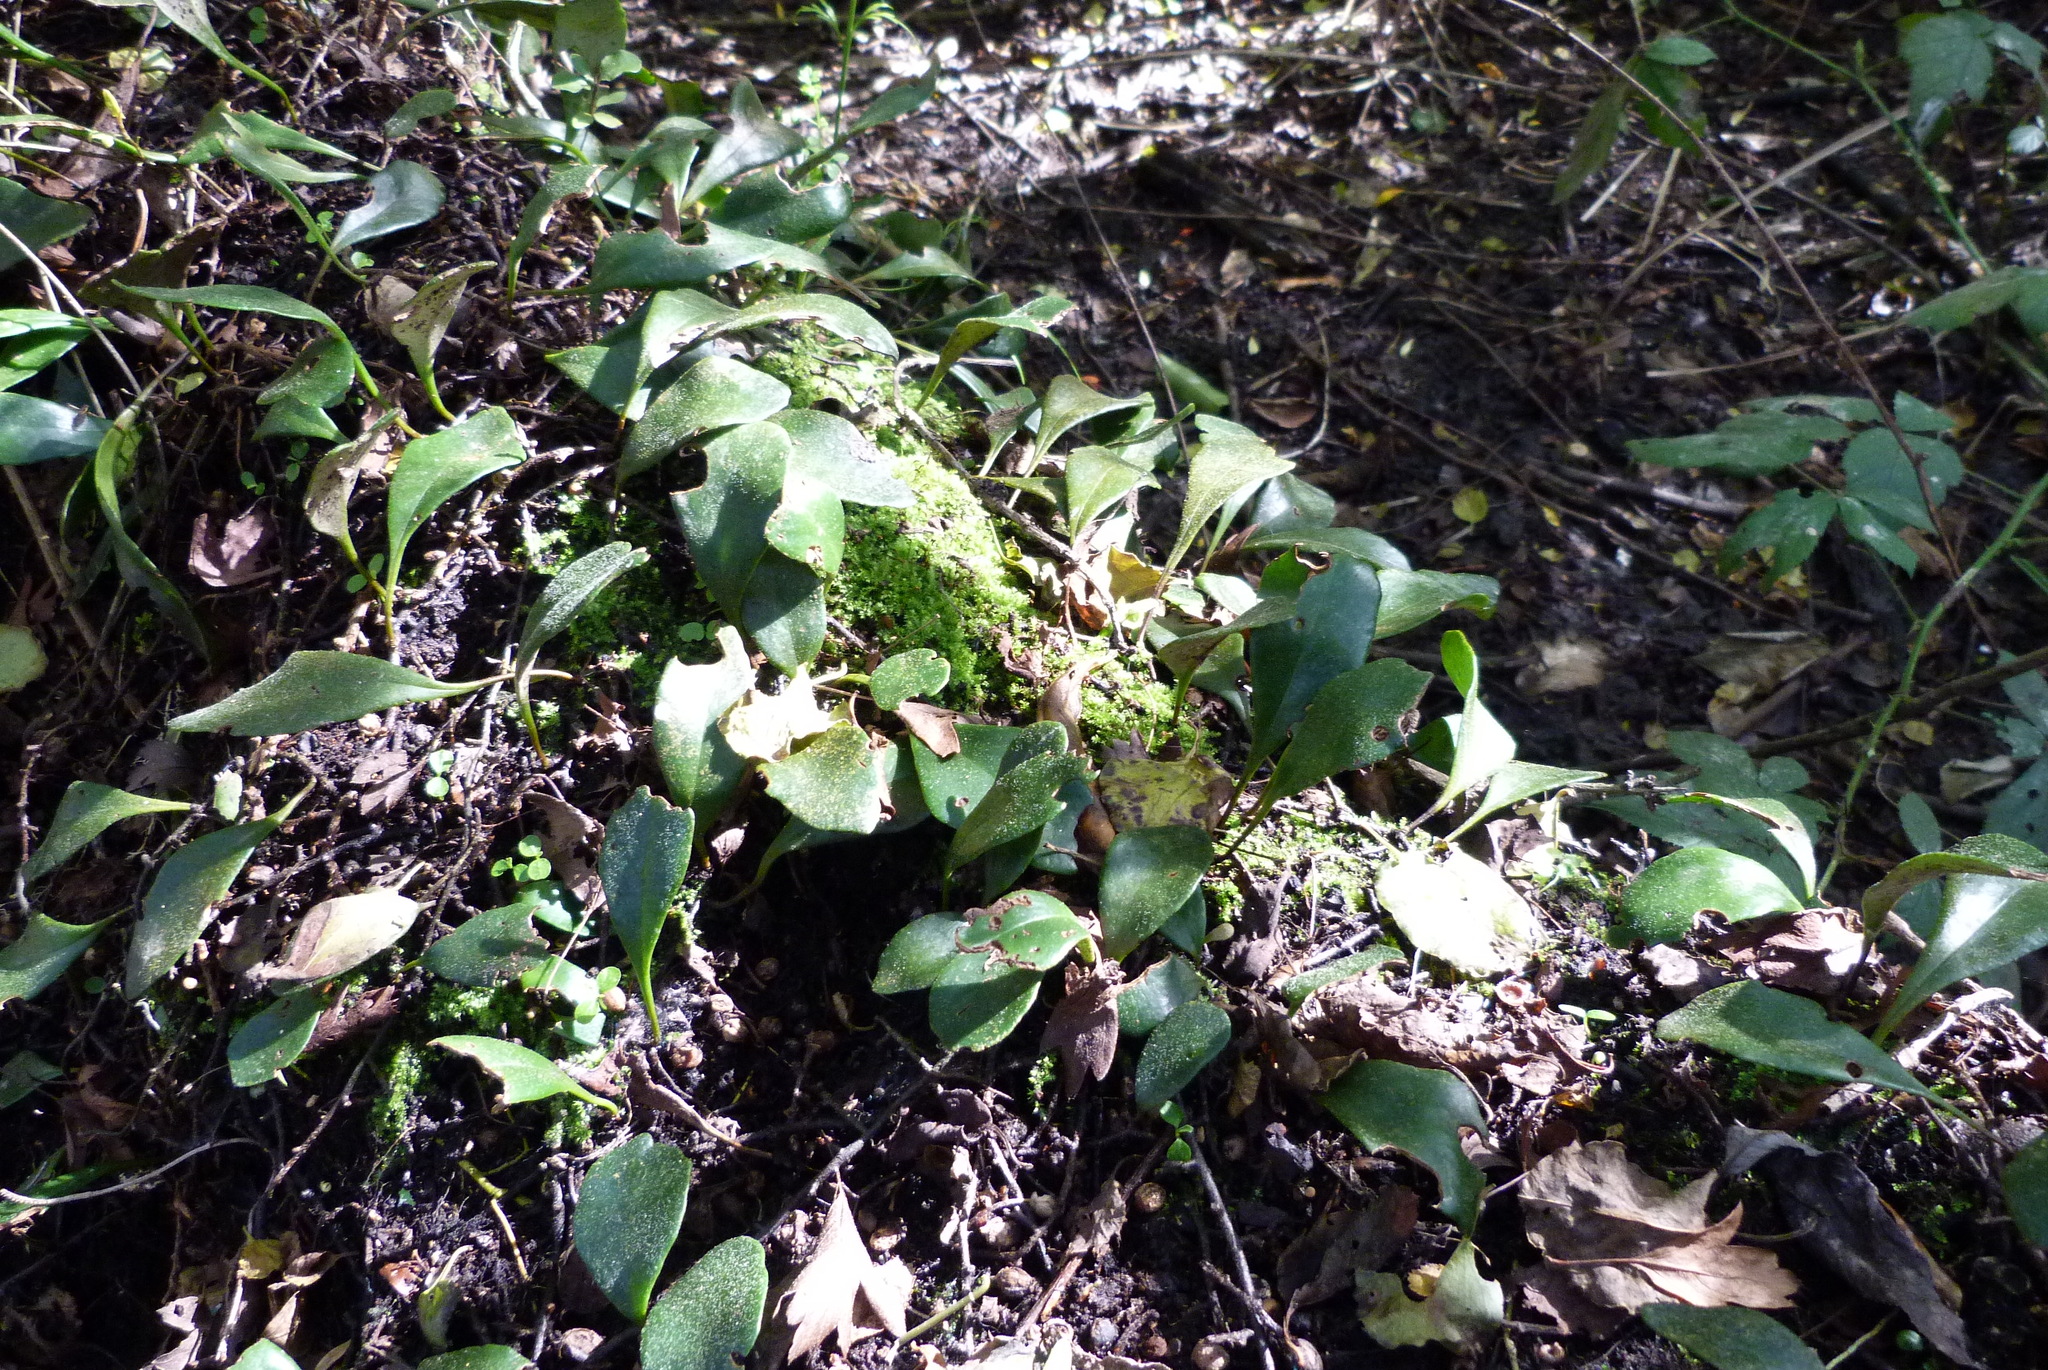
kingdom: Plantae
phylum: Tracheophyta
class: Polypodiopsida
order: Polypodiales
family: Polypodiaceae
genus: Pyrrosia
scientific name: Pyrrosia eleagnifolia
